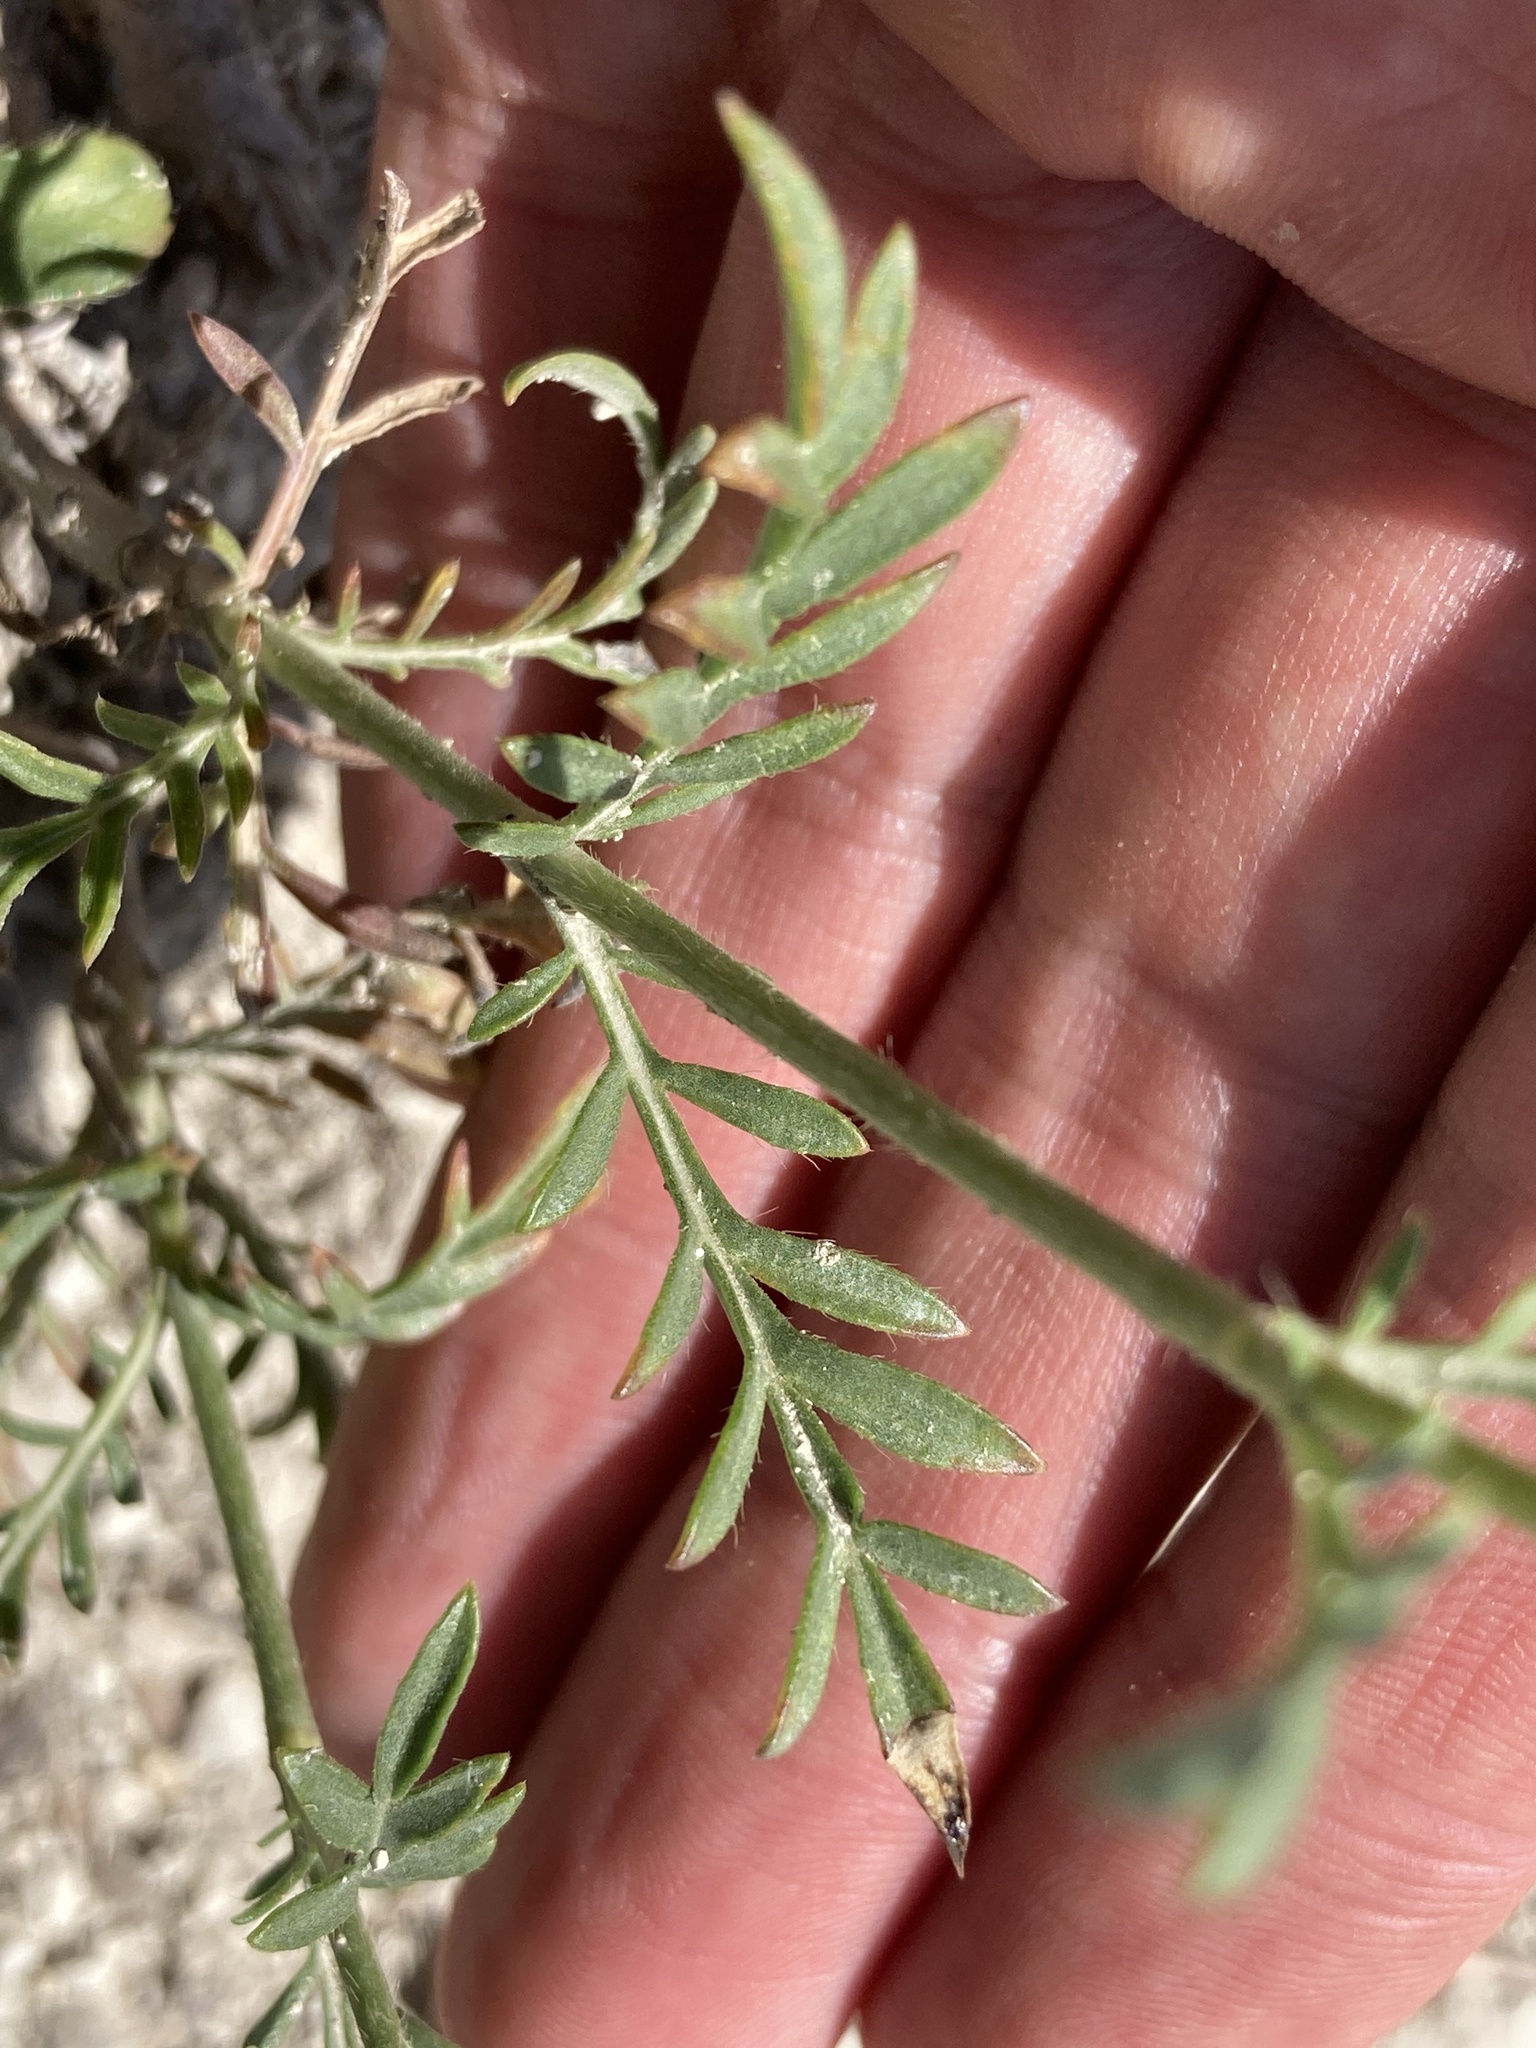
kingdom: Plantae
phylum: Tracheophyta
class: Magnoliopsida
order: Dipsacales
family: Caprifoliaceae
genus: Cephalaria
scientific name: Cephalaria uralensis
